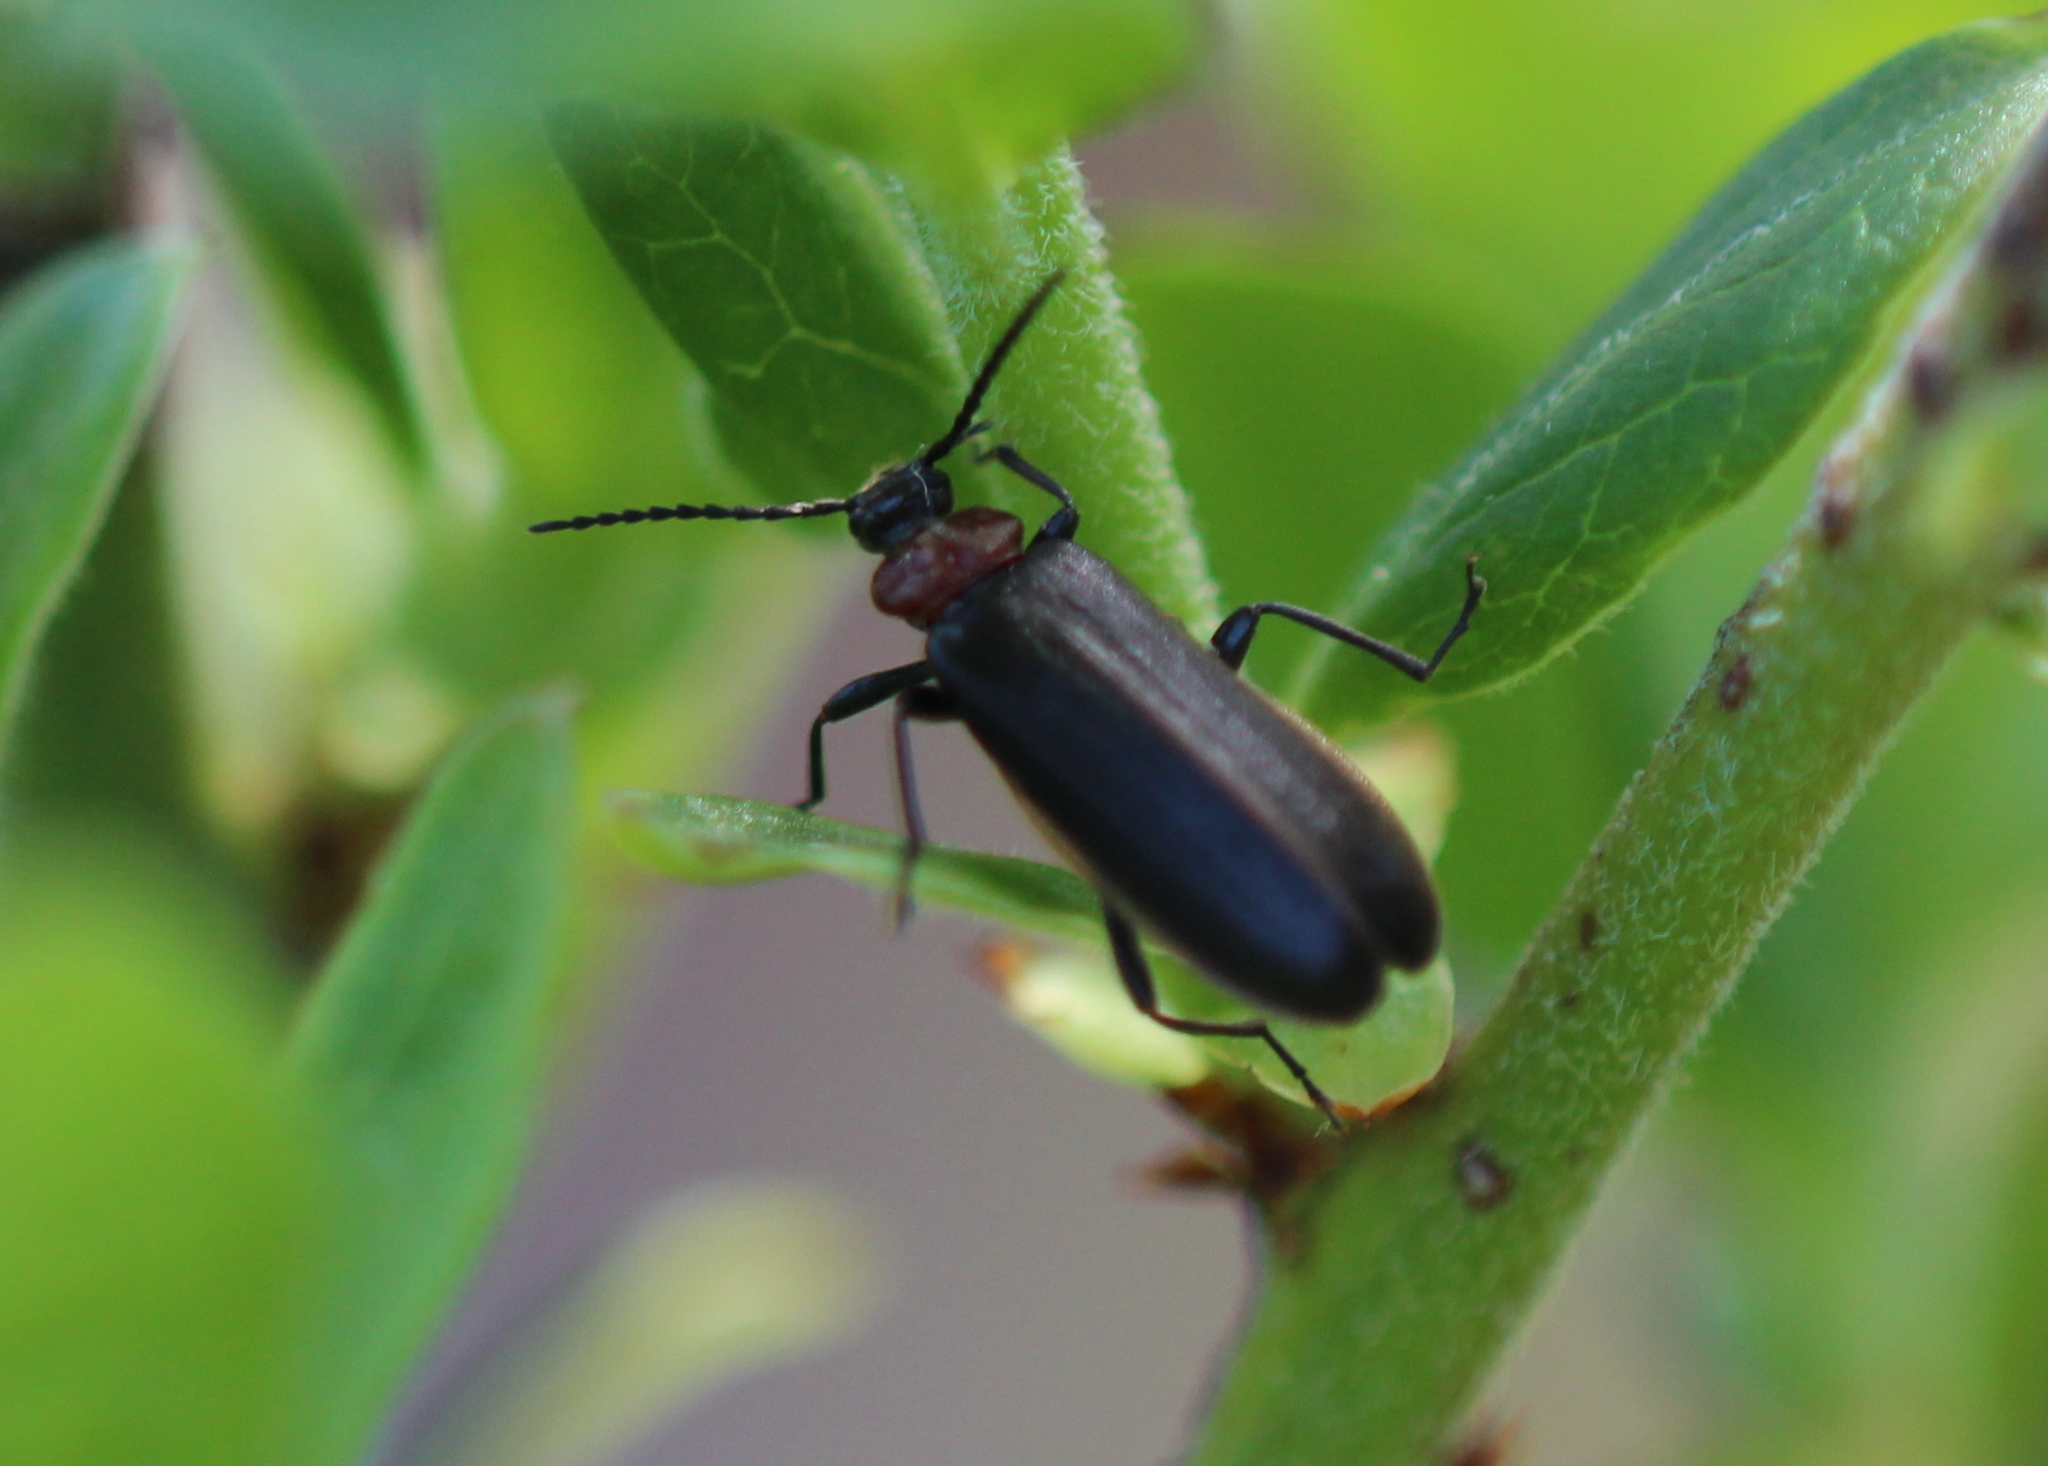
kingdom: Animalia
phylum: Arthropoda
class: Insecta
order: Coleoptera
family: Pyrochroidae
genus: Schizotus
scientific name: Schizotus cervicalis
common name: Flaming-pillow beetle
